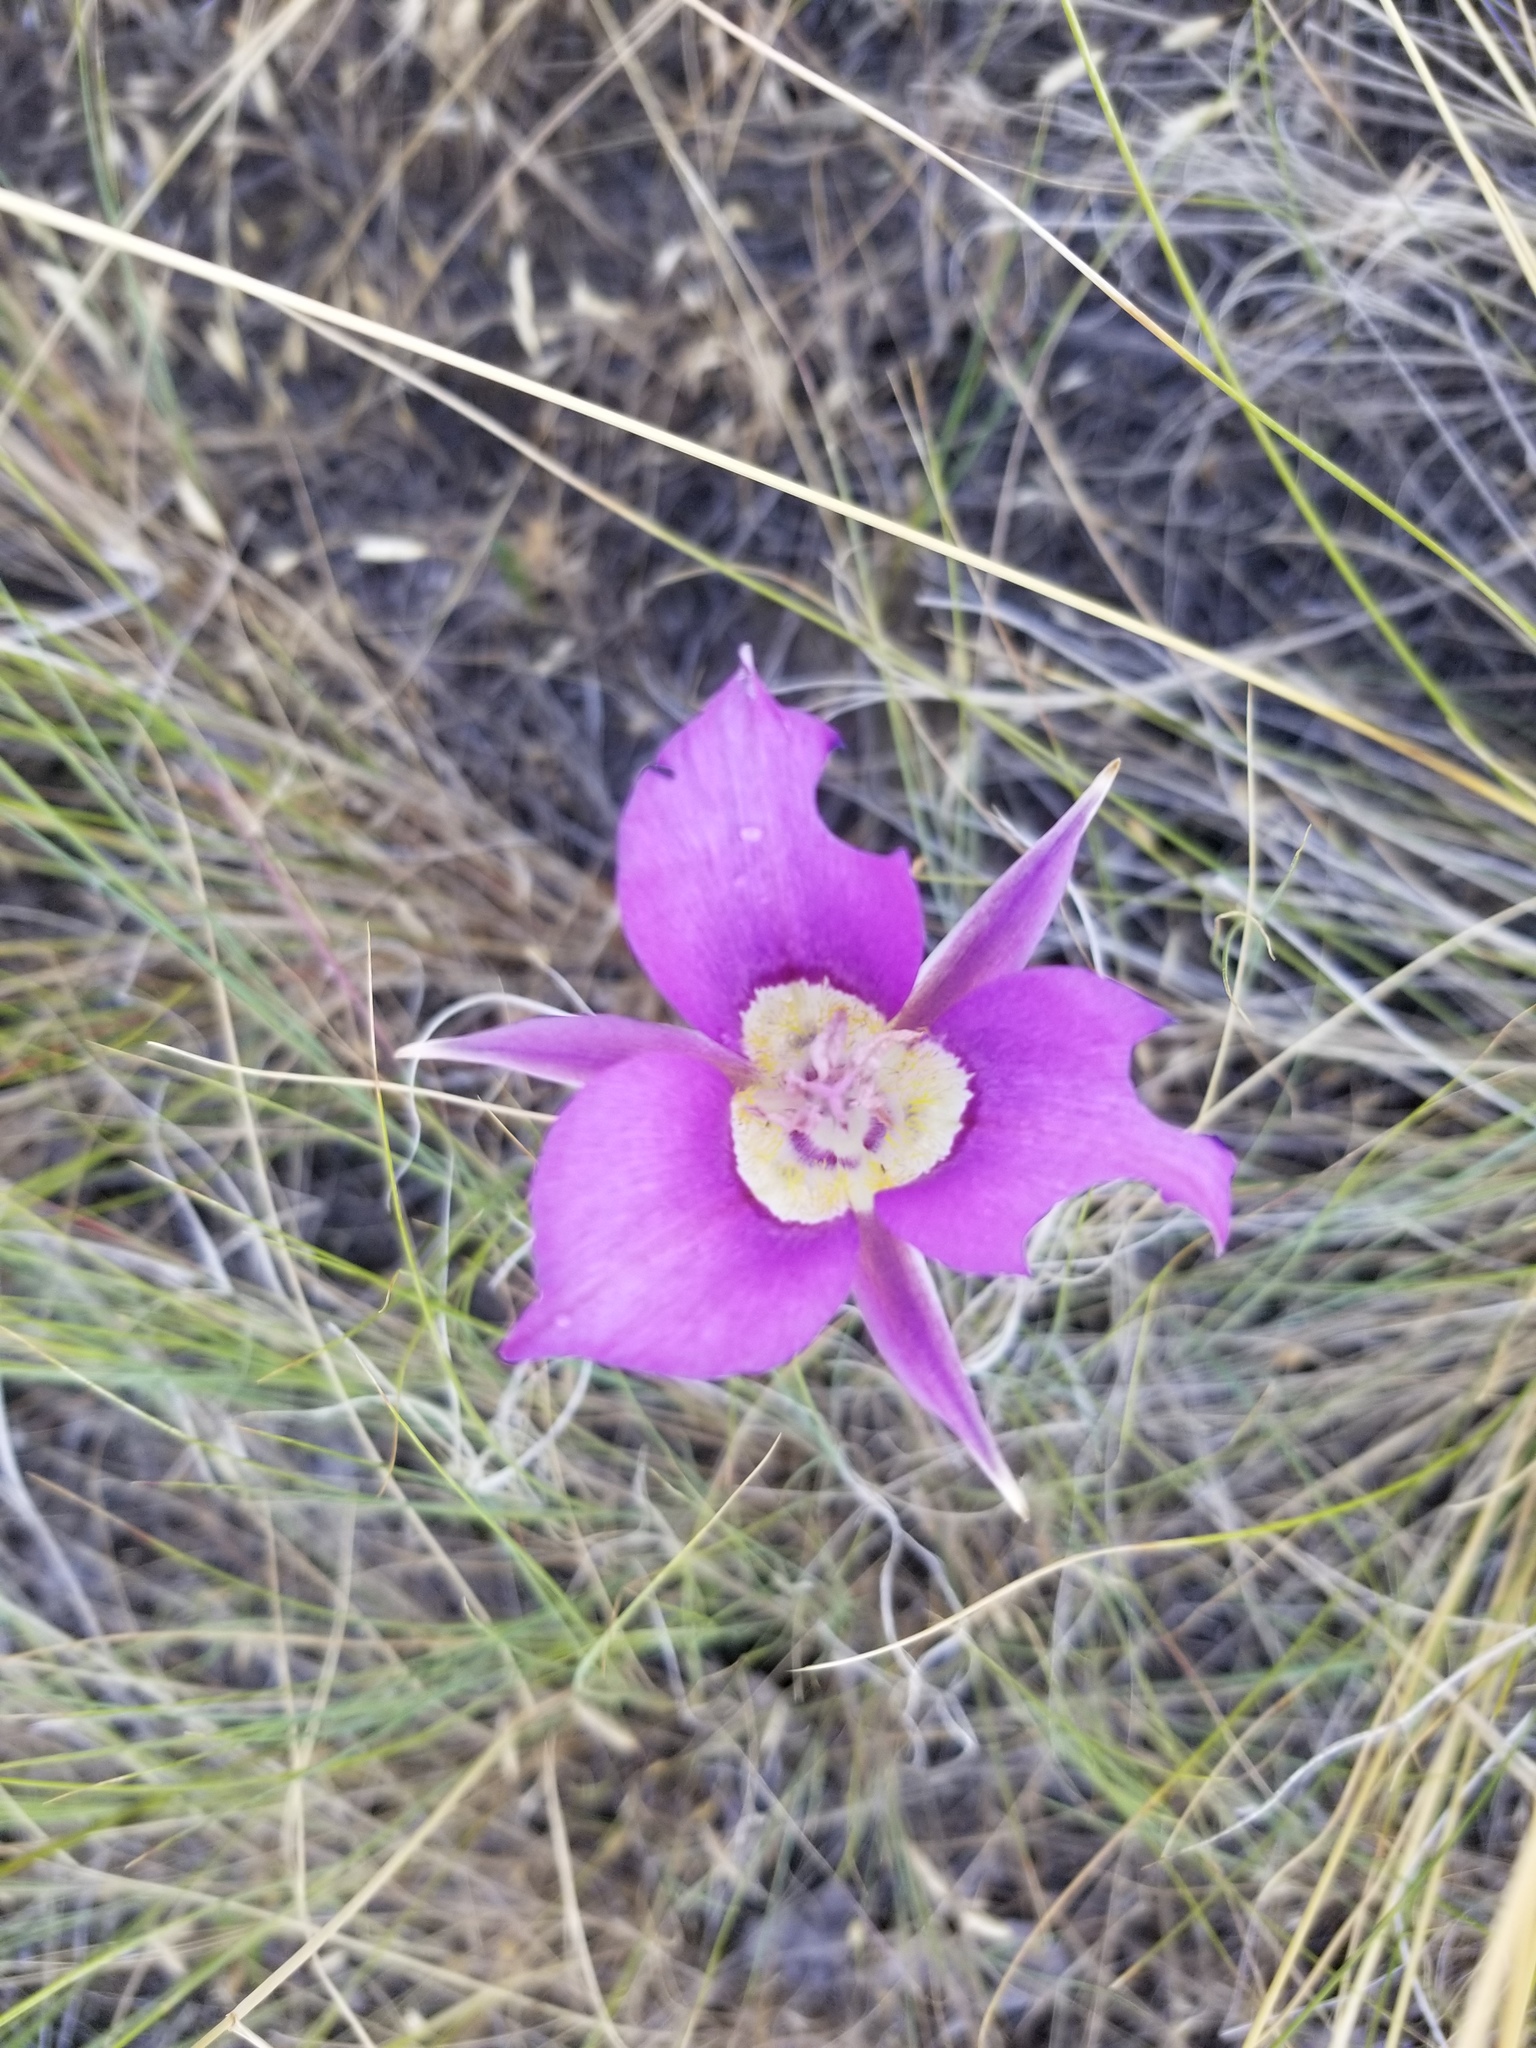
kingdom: Plantae
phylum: Tracheophyta
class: Liliopsida
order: Liliales
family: Liliaceae
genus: Calochortus
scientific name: Calochortus macrocarpus
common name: Green-band mariposa lily
